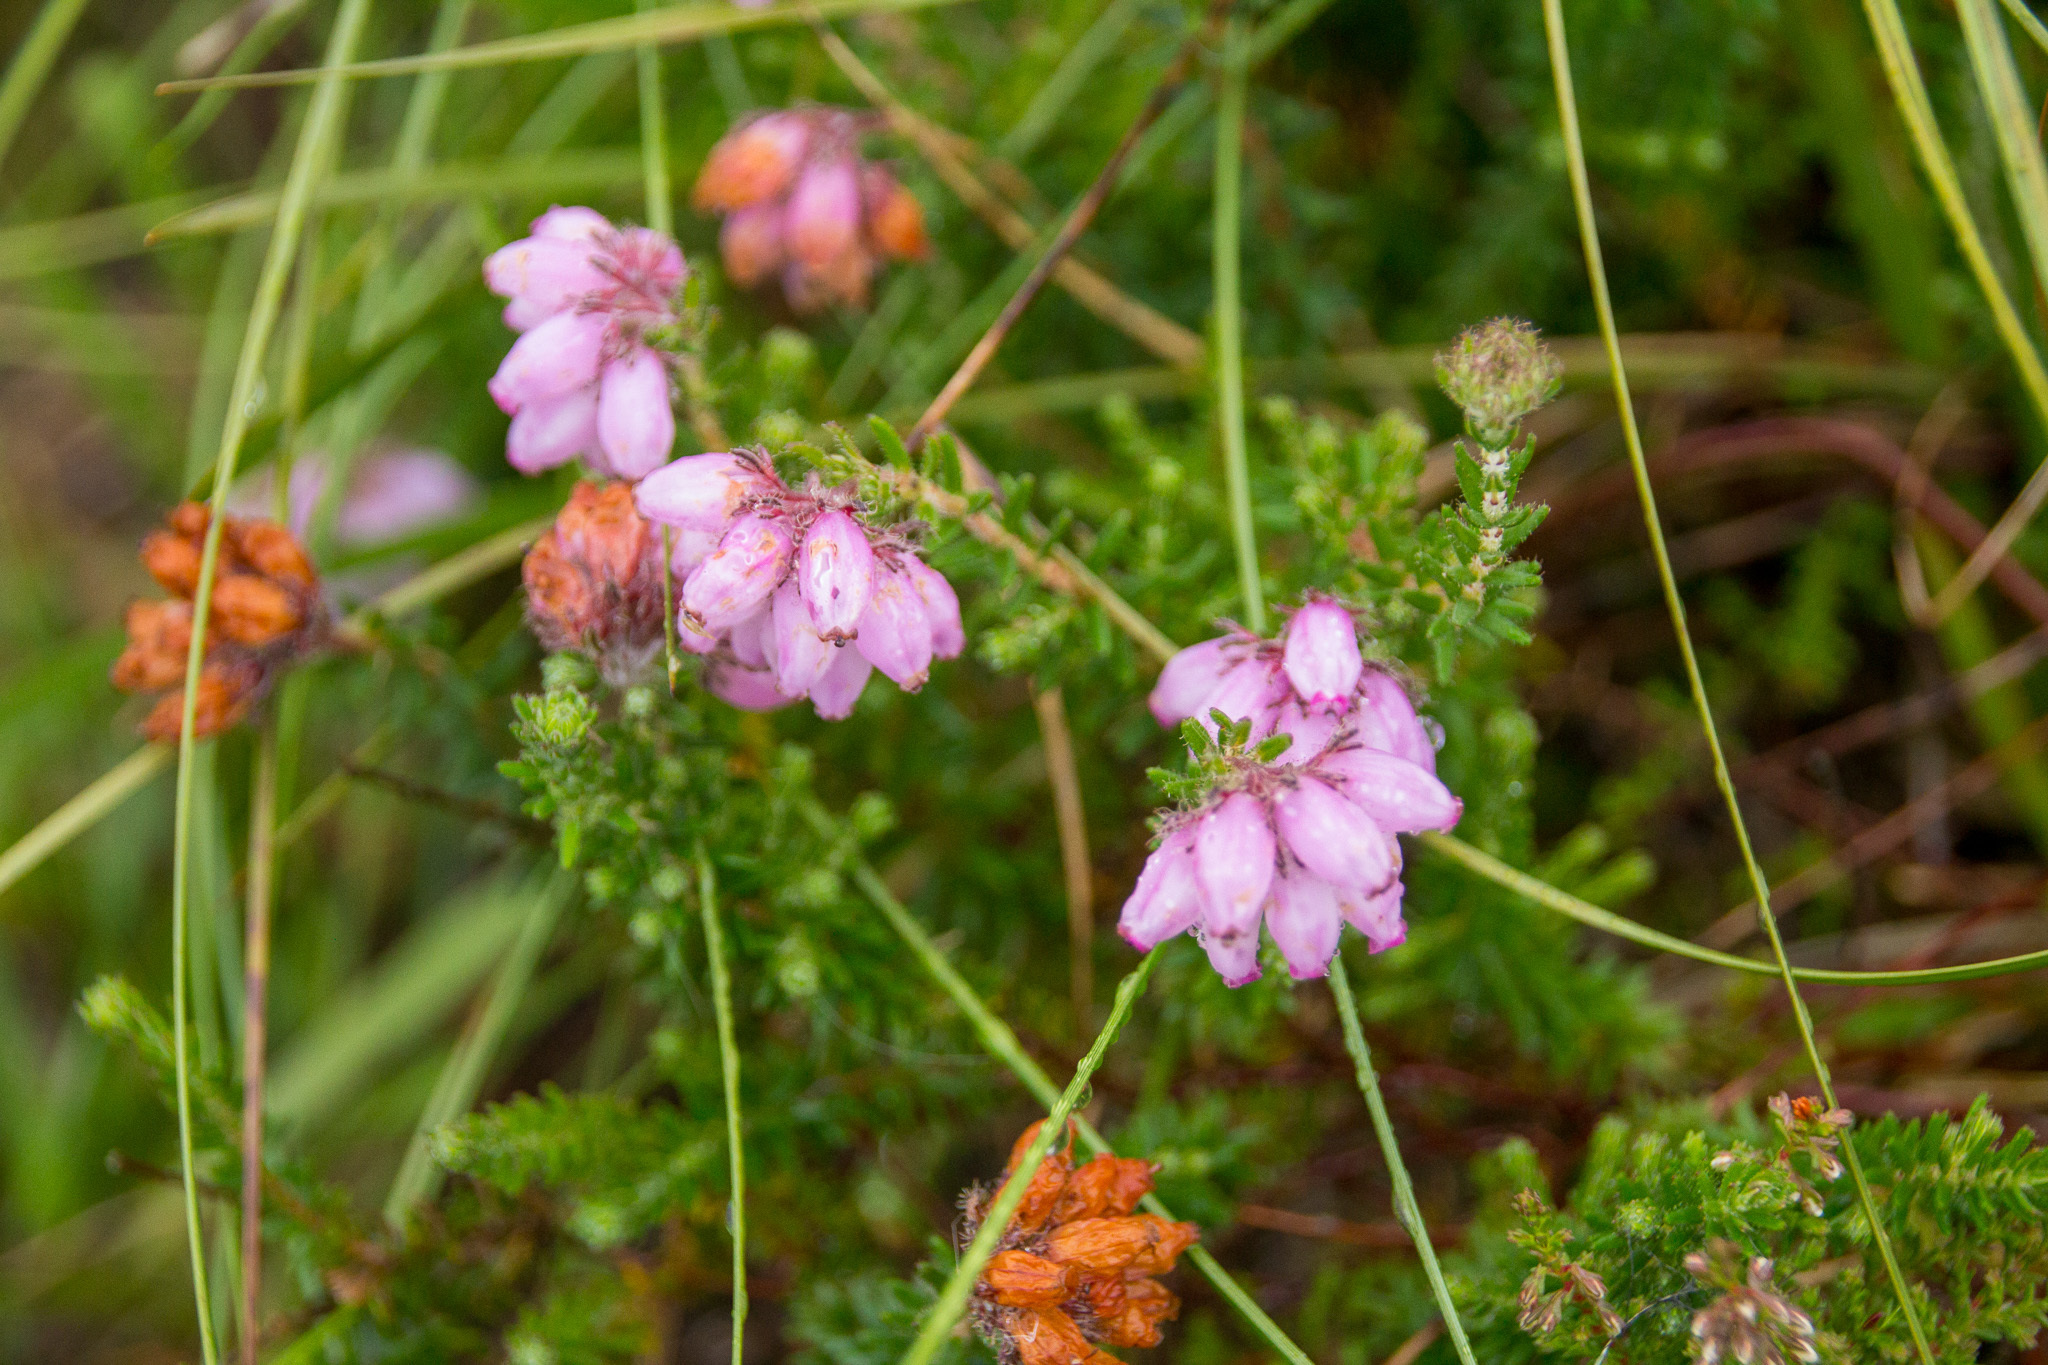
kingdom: Plantae
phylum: Tracheophyta
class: Magnoliopsida
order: Ericales
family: Ericaceae
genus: Erica
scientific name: Erica tetralix
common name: Cross-leaved heath
